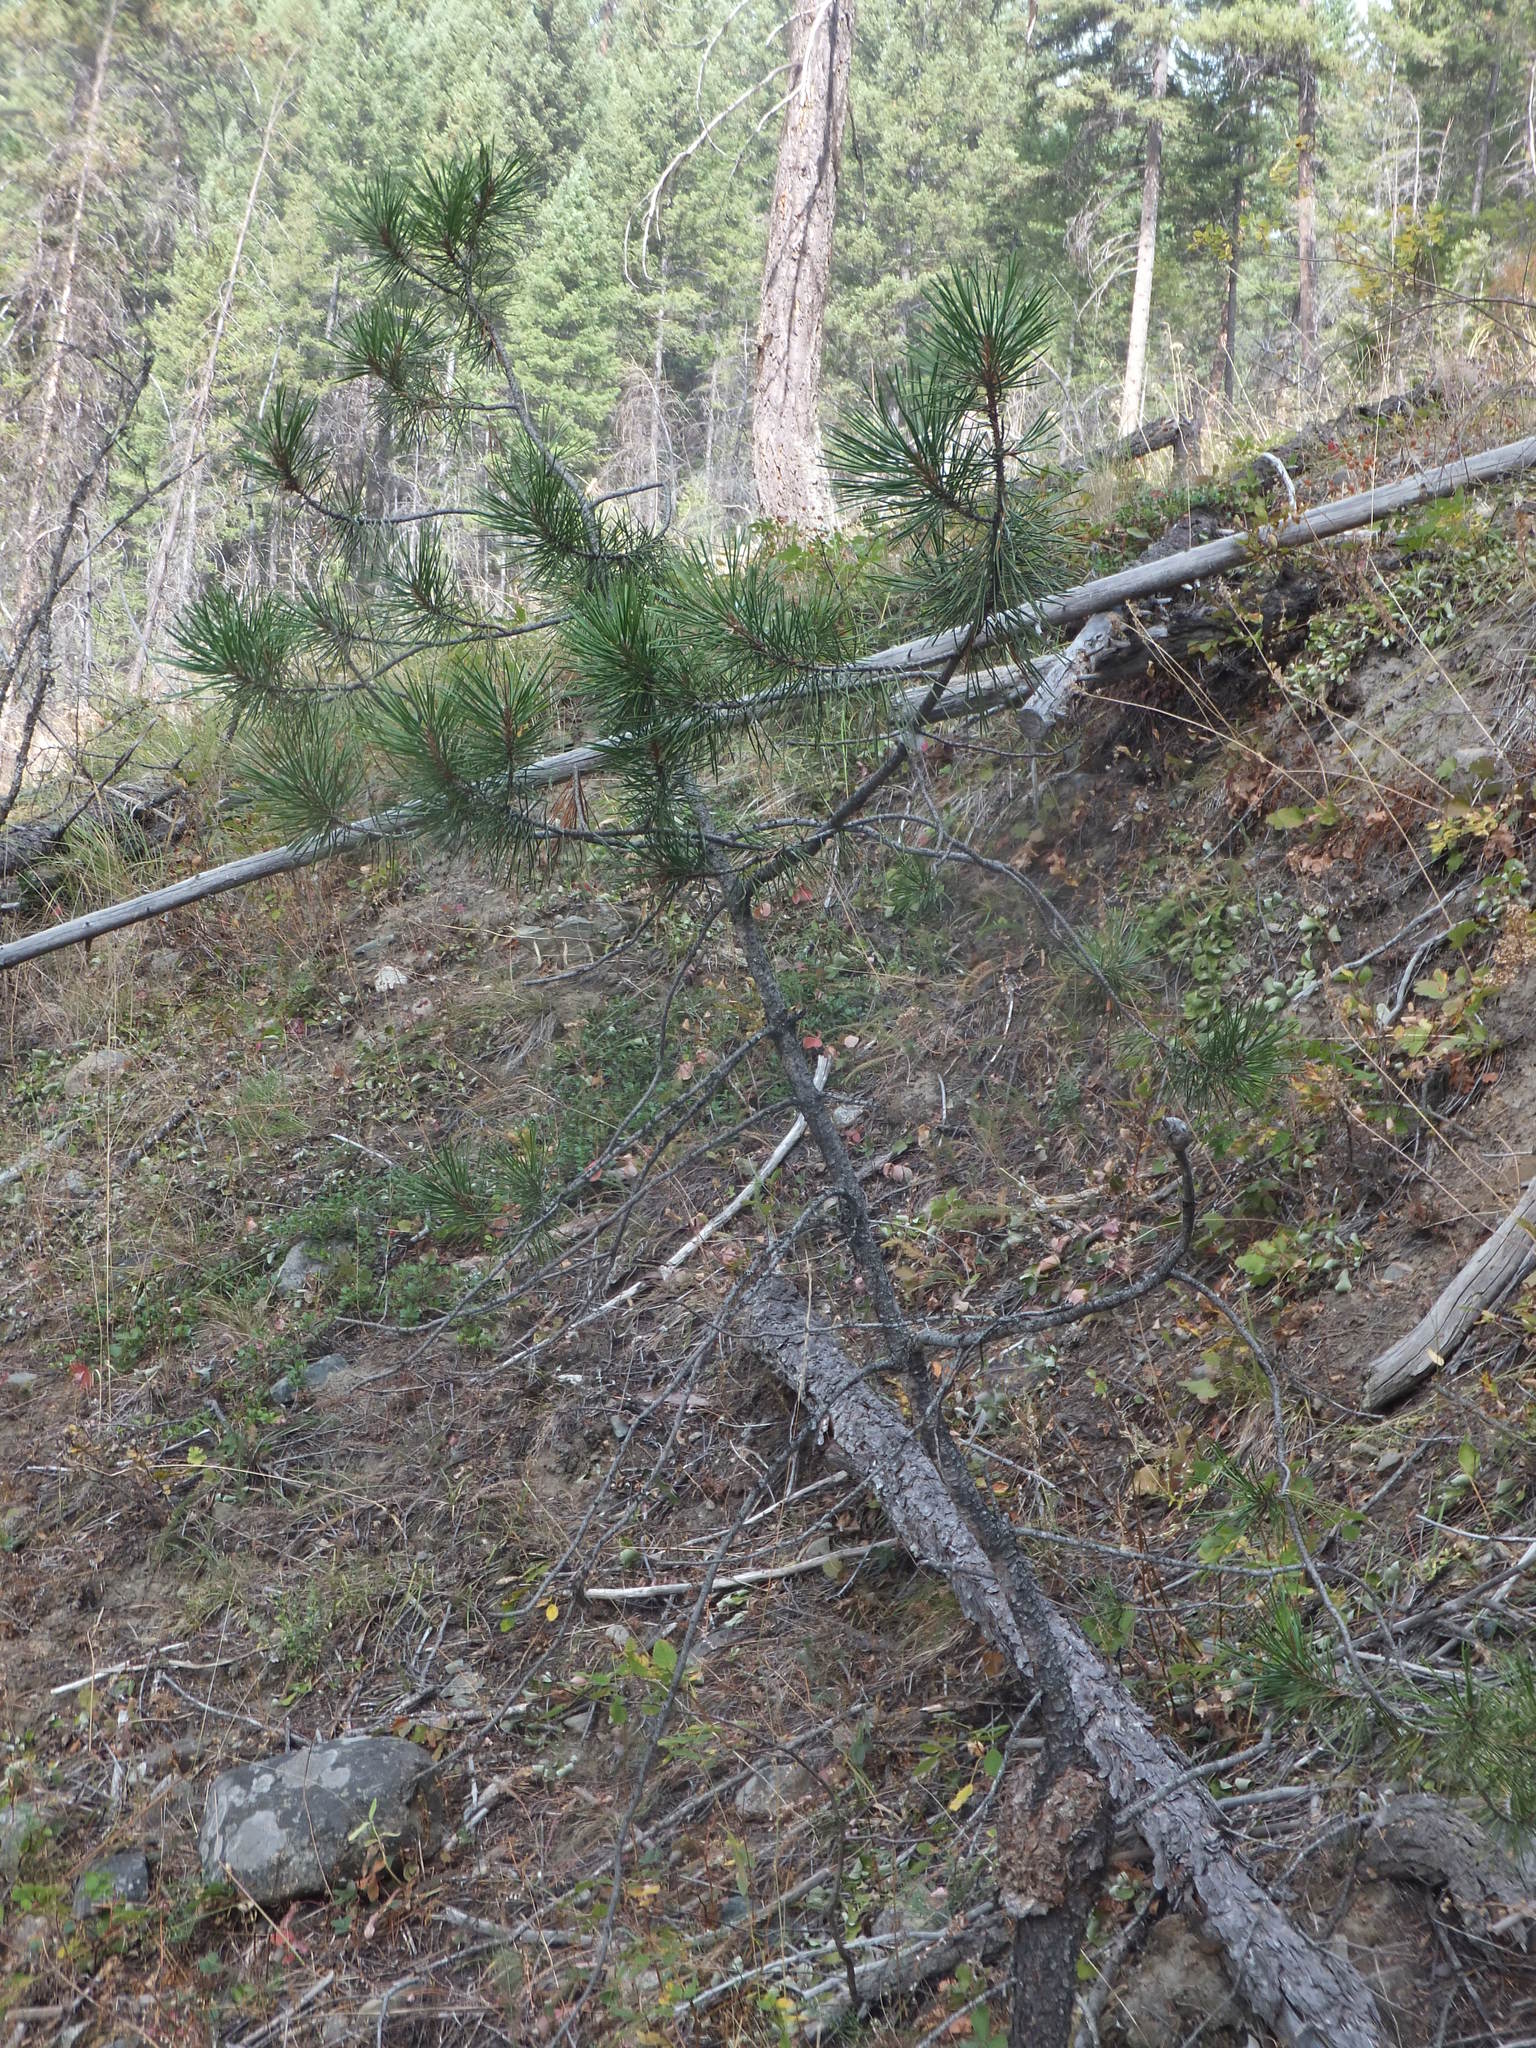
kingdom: Plantae
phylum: Tracheophyta
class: Pinopsida
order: Pinales
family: Pinaceae
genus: Pinus
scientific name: Pinus contorta
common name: Lodgepole pine
